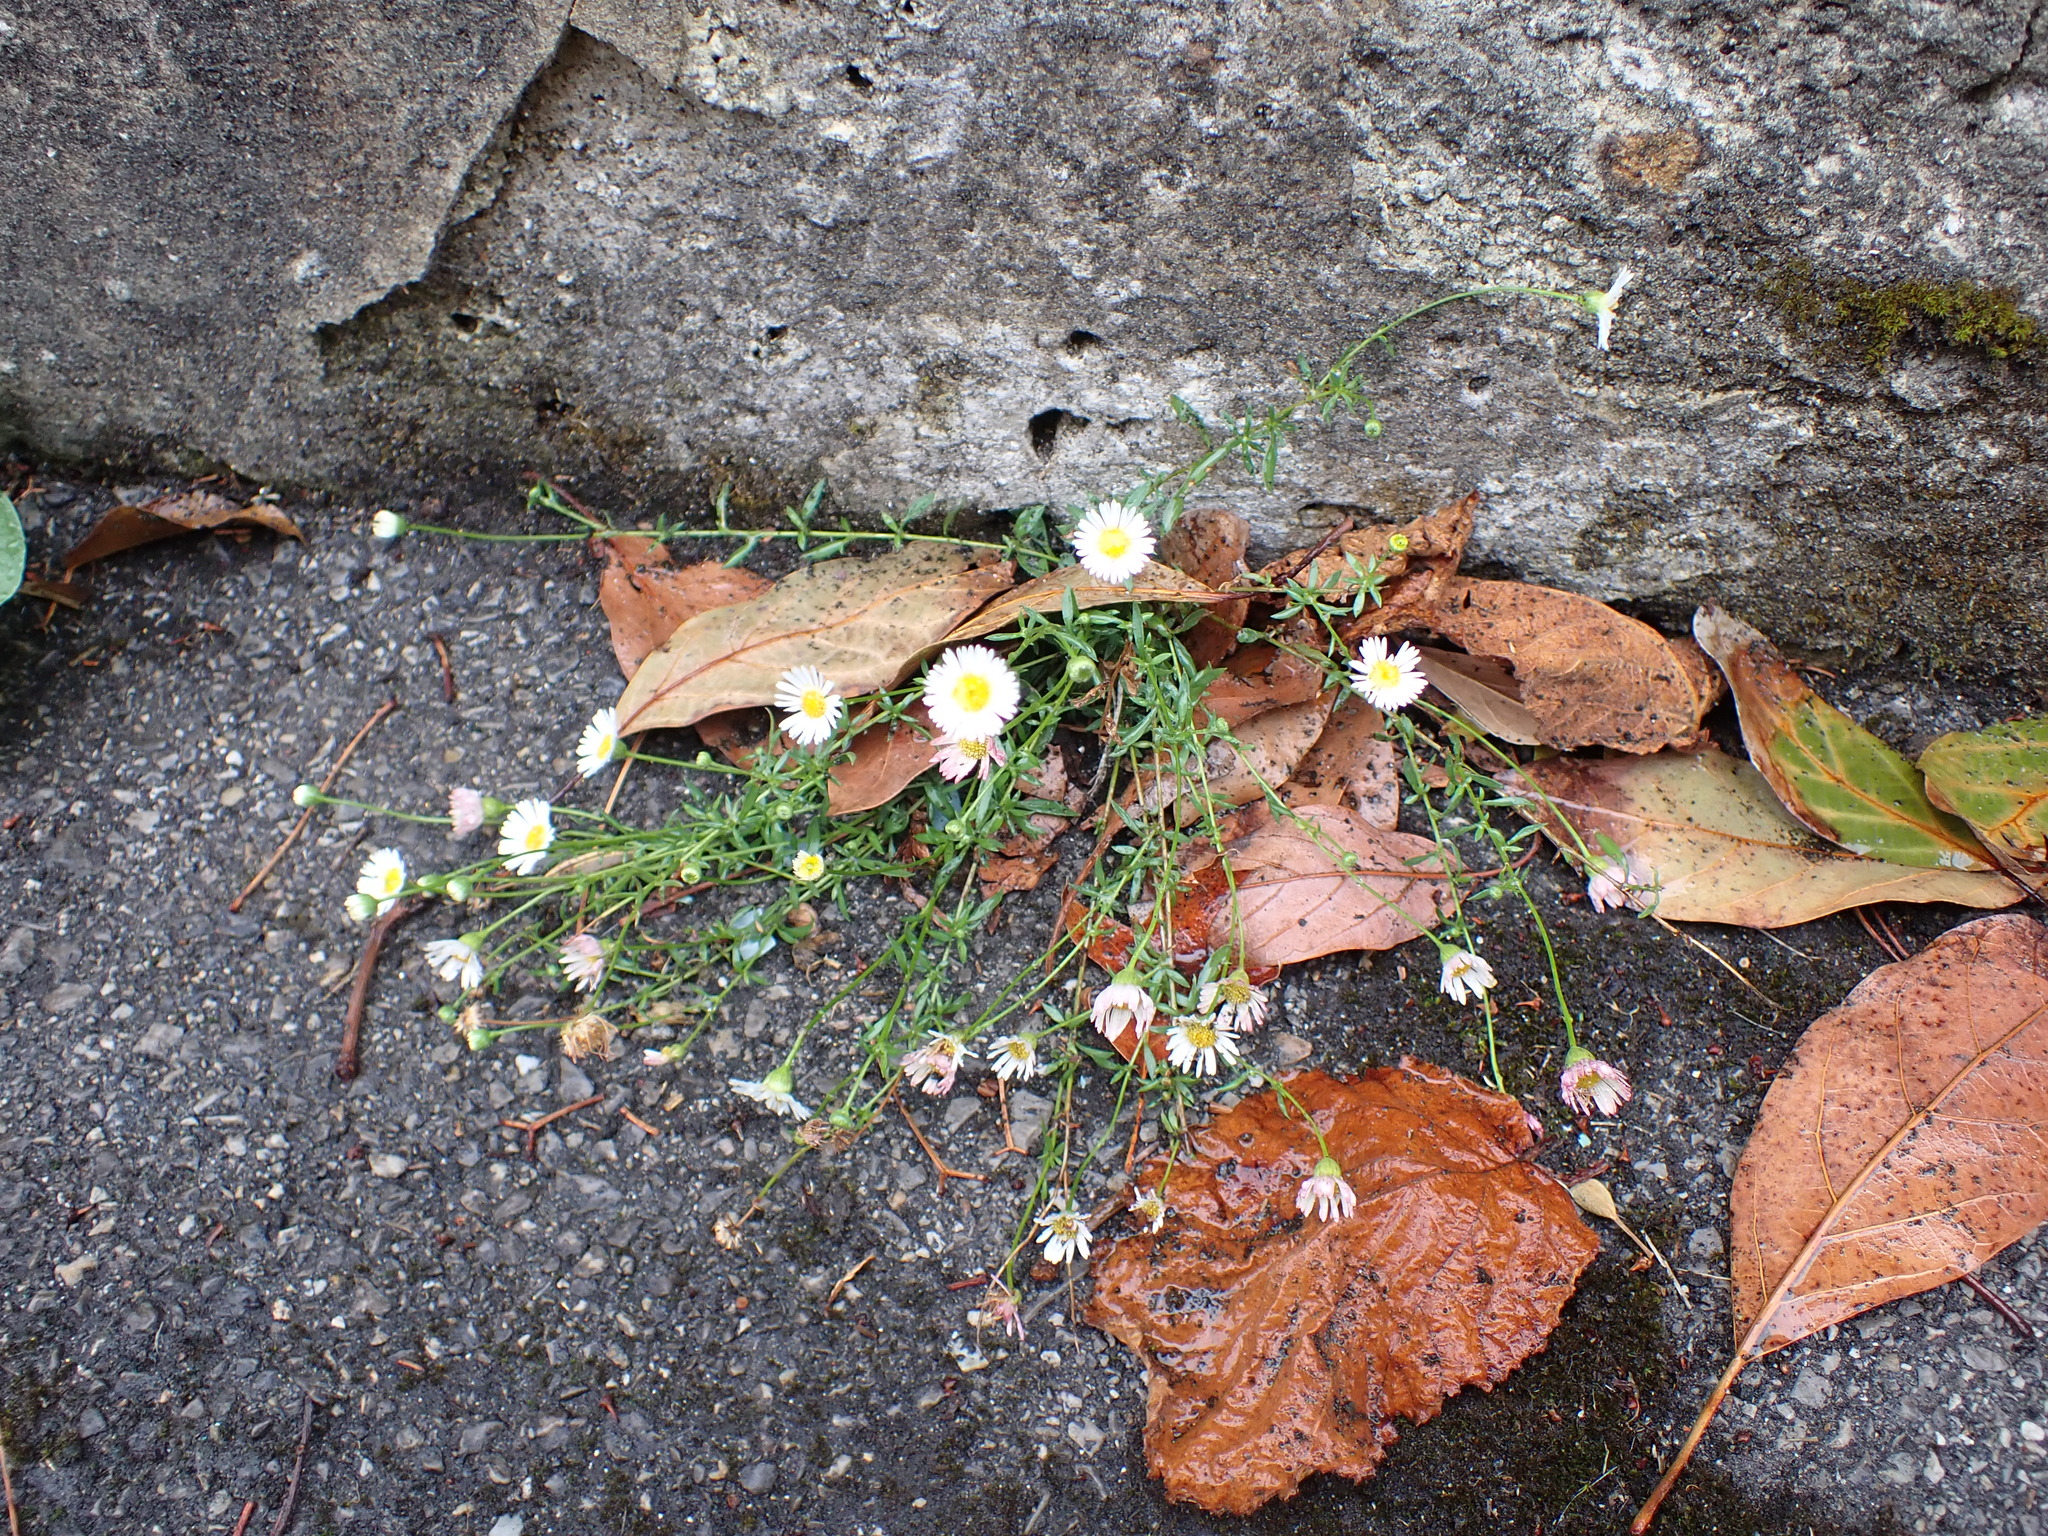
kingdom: Plantae
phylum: Tracheophyta
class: Magnoliopsida
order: Asterales
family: Asteraceae
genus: Erigeron
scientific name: Erigeron karvinskianus
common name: Mexican fleabane
